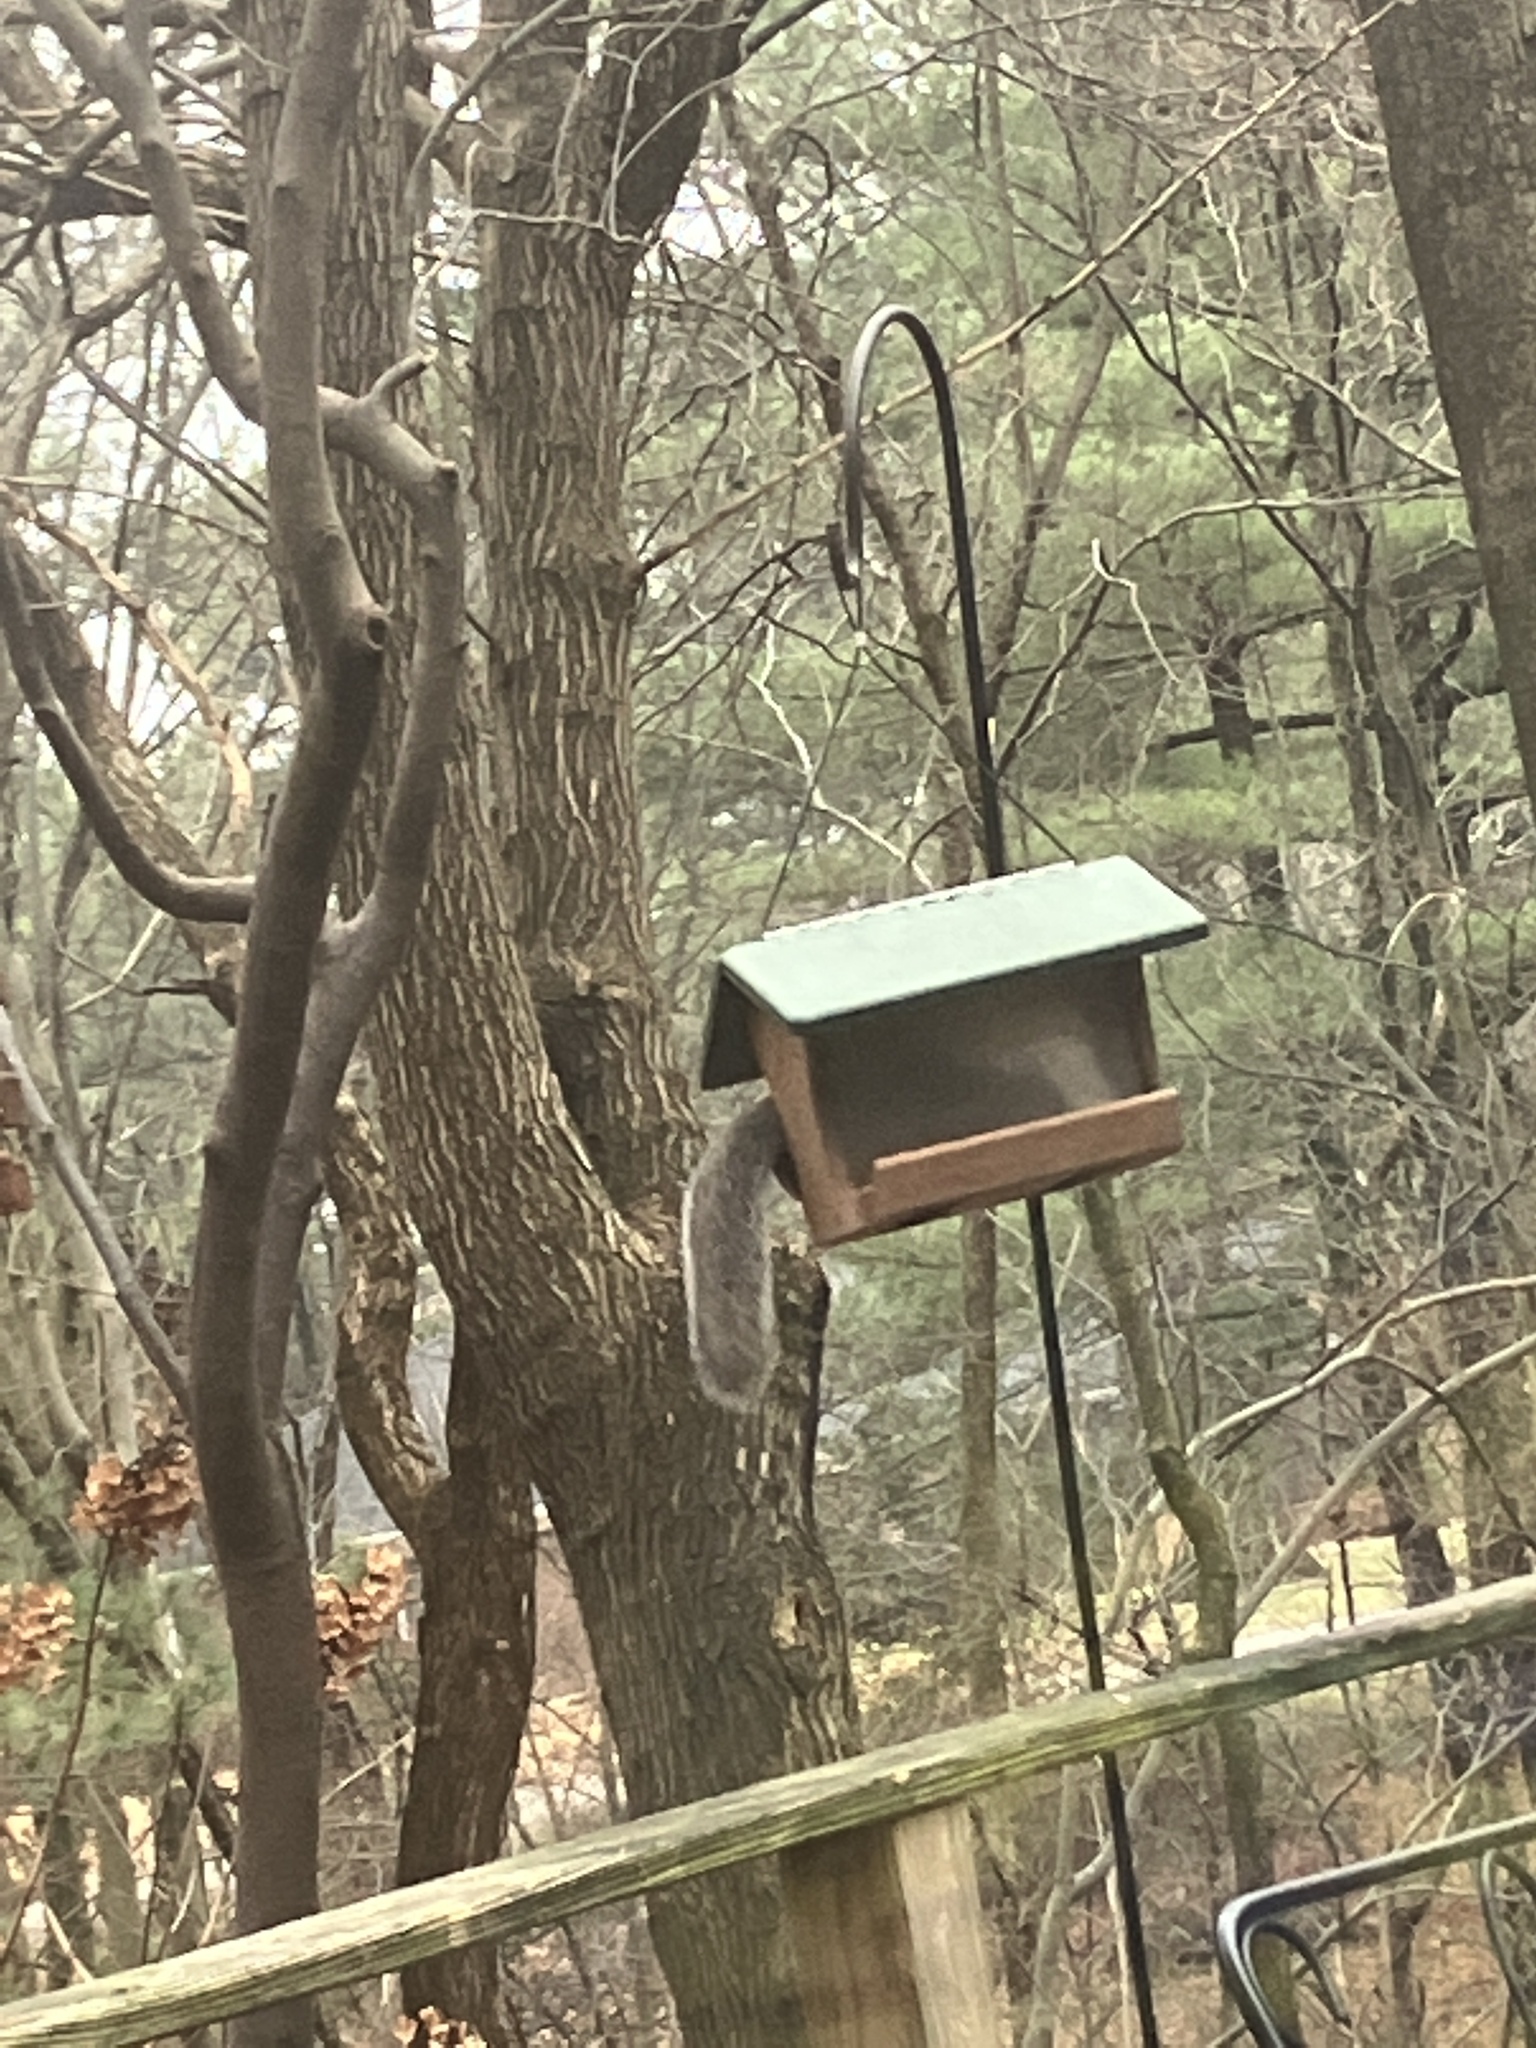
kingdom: Animalia
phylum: Chordata
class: Mammalia
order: Rodentia
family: Sciuridae
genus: Sciurus
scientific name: Sciurus carolinensis
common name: Eastern gray squirrel
